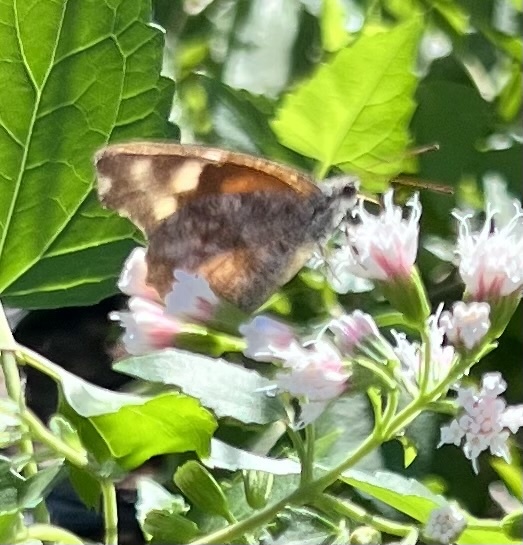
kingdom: Animalia
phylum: Arthropoda
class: Insecta
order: Lepidoptera
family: Nymphalidae
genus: Libytheana
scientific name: Libytheana carinenta
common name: American snout
